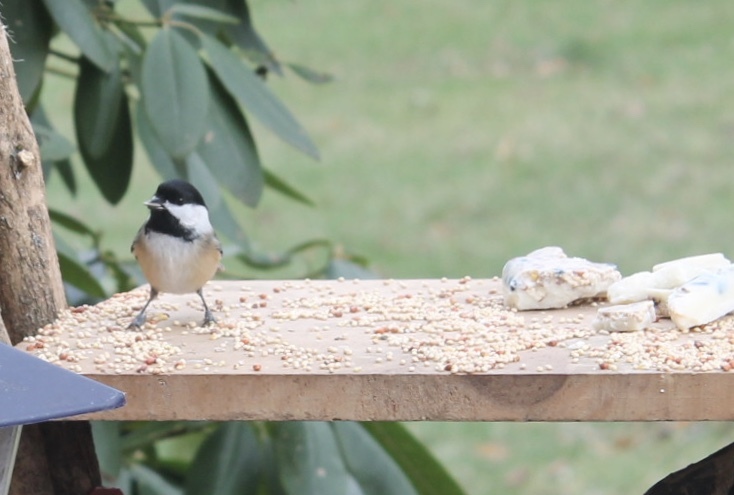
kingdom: Animalia
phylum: Chordata
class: Aves
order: Passeriformes
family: Paridae
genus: Poecile
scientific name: Poecile atricapillus
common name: Black-capped chickadee
